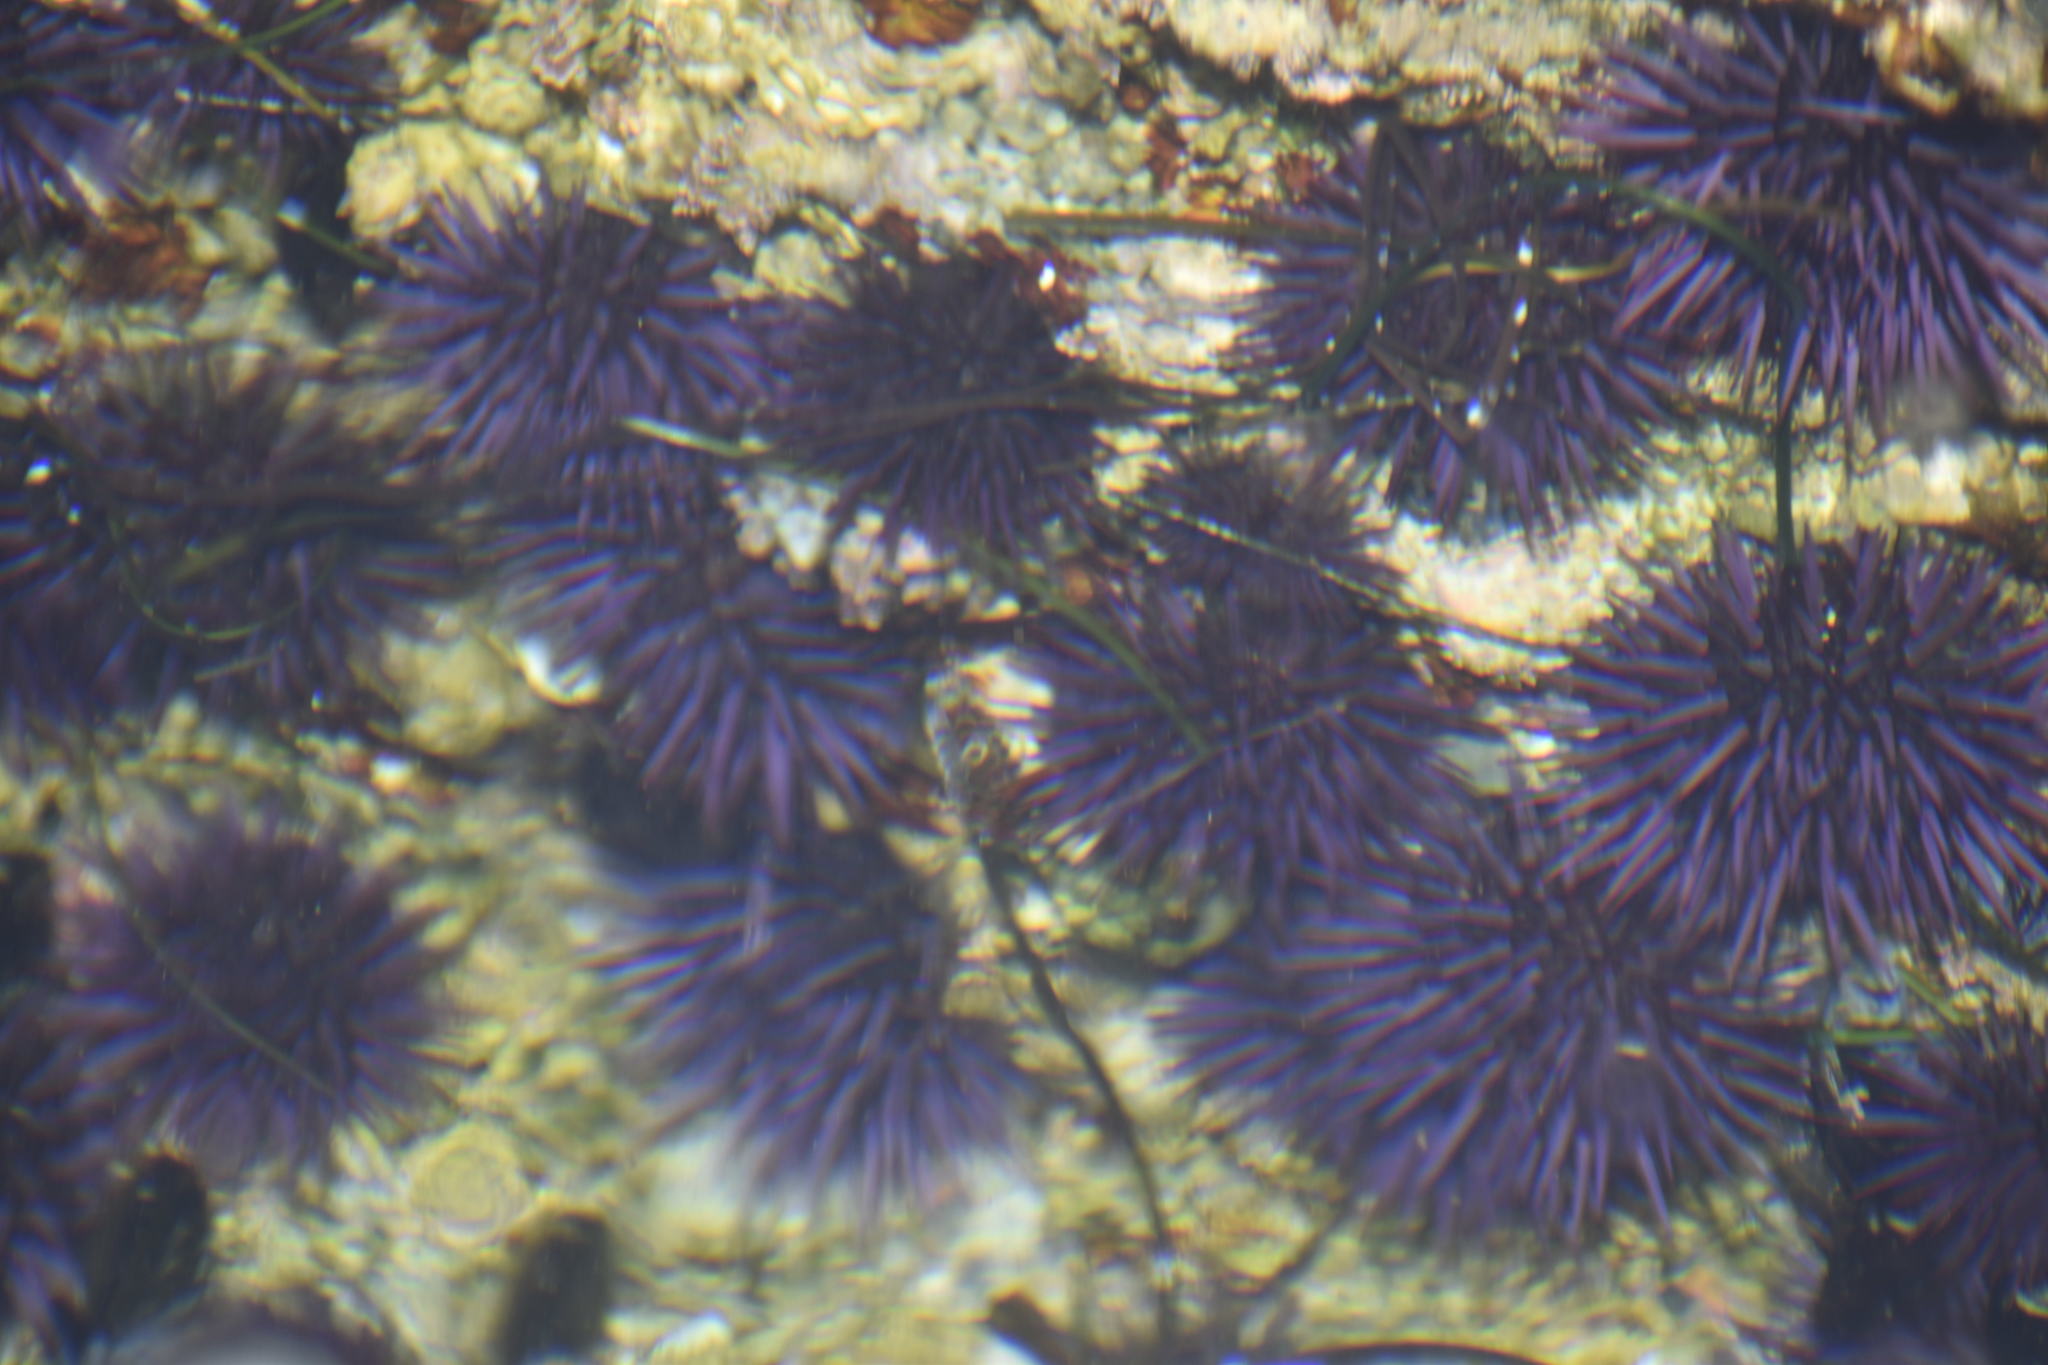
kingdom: Animalia
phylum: Echinodermata
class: Echinoidea
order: Camarodonta
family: Strongylocentrotidae
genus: Strongylocentrotus
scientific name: Strongylocentrotus purpuratus
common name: Purple sea urchin
